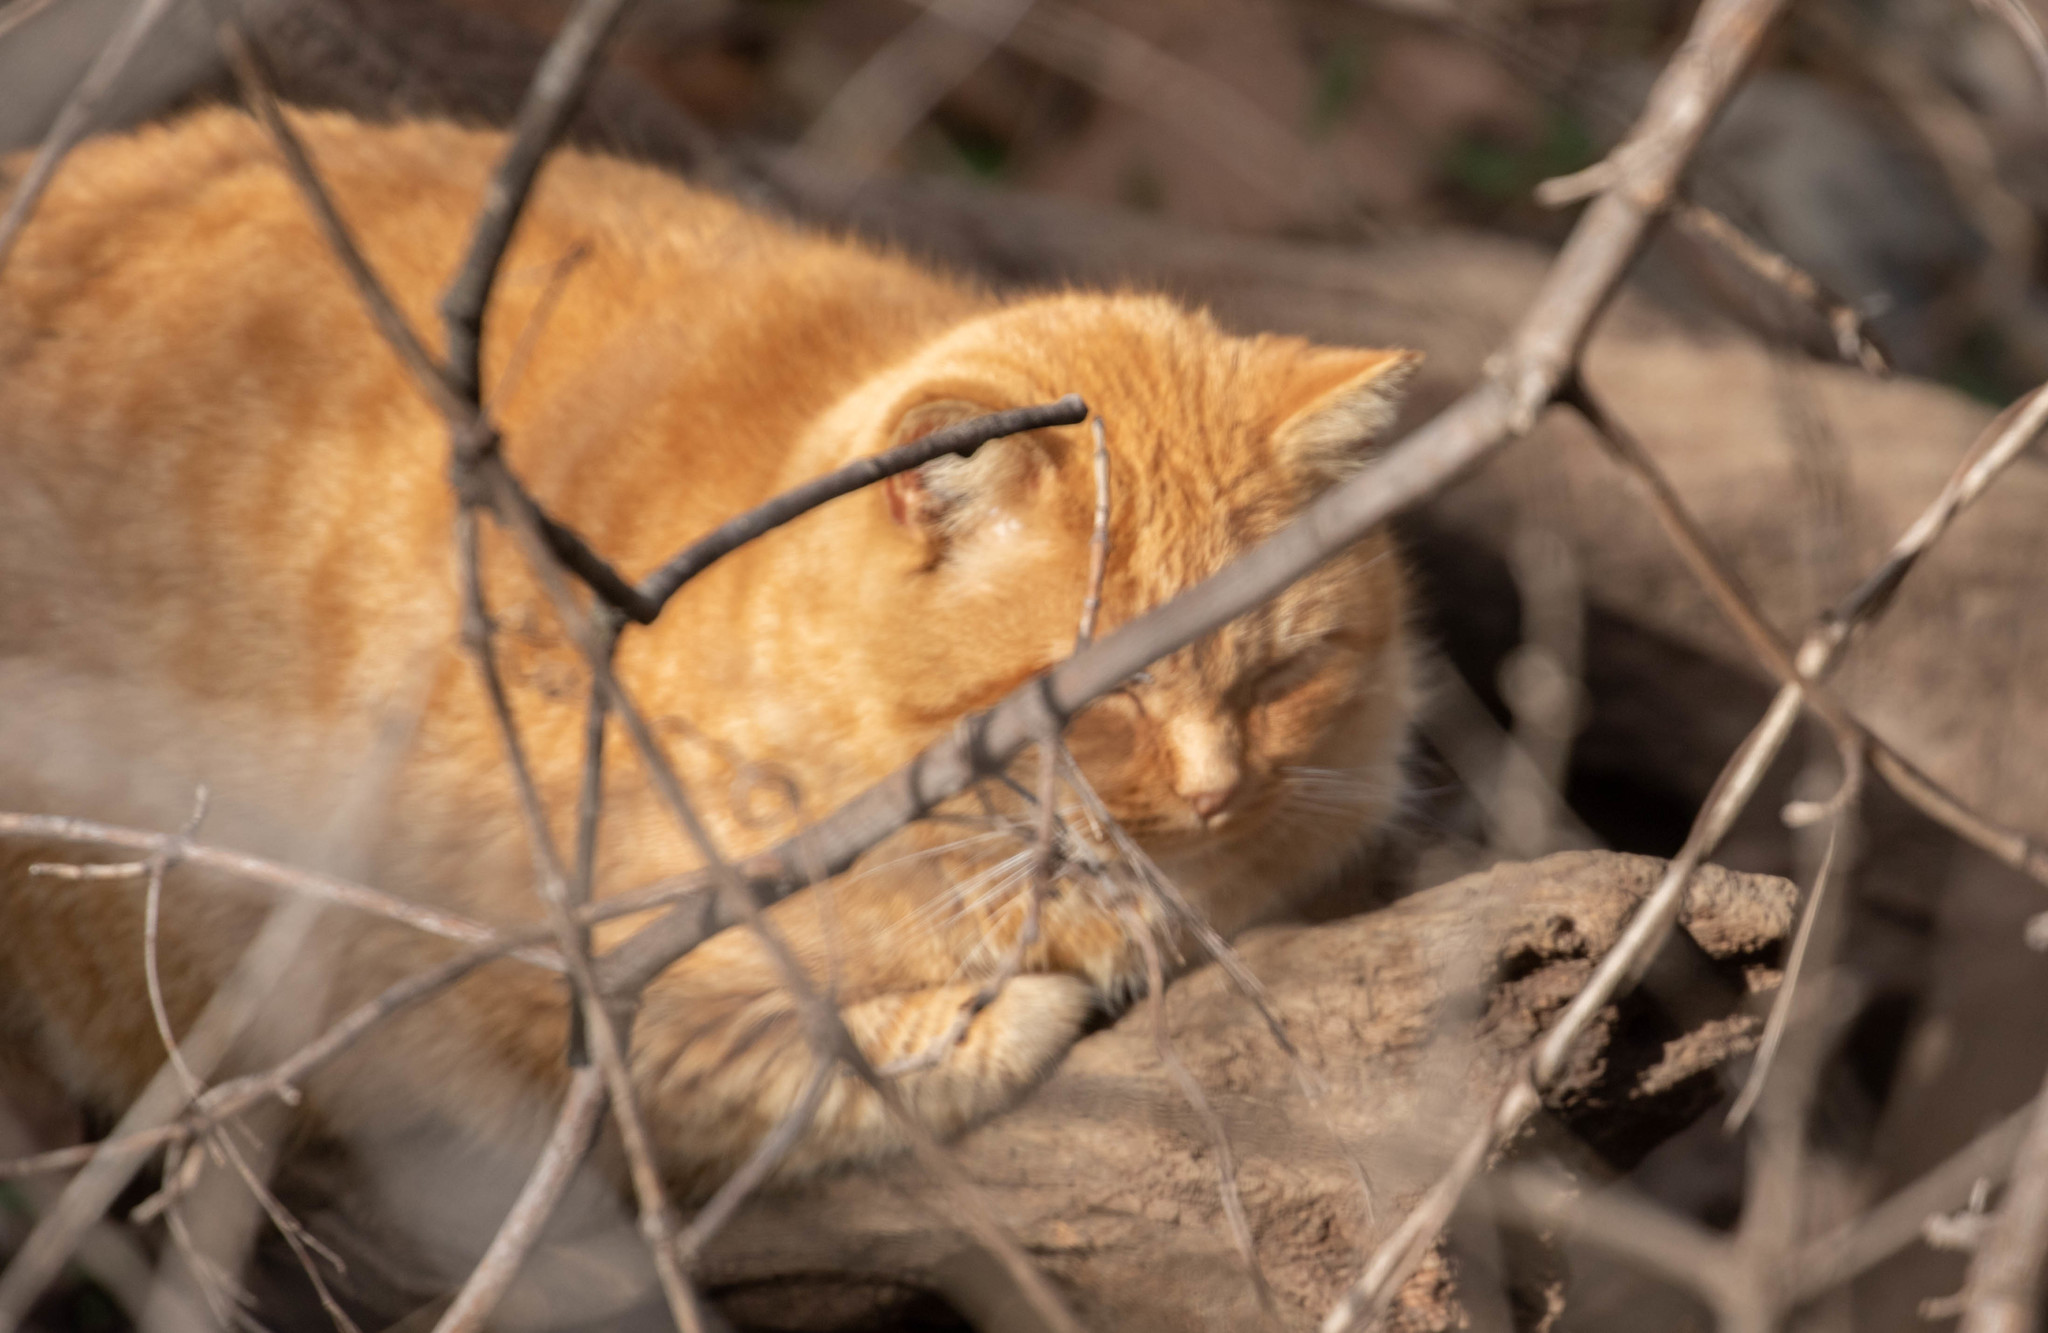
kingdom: Animalia
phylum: Chordata
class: Mammalia
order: Carnivora
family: Felidae
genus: Felis
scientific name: Felis catus
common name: Domestic cat
